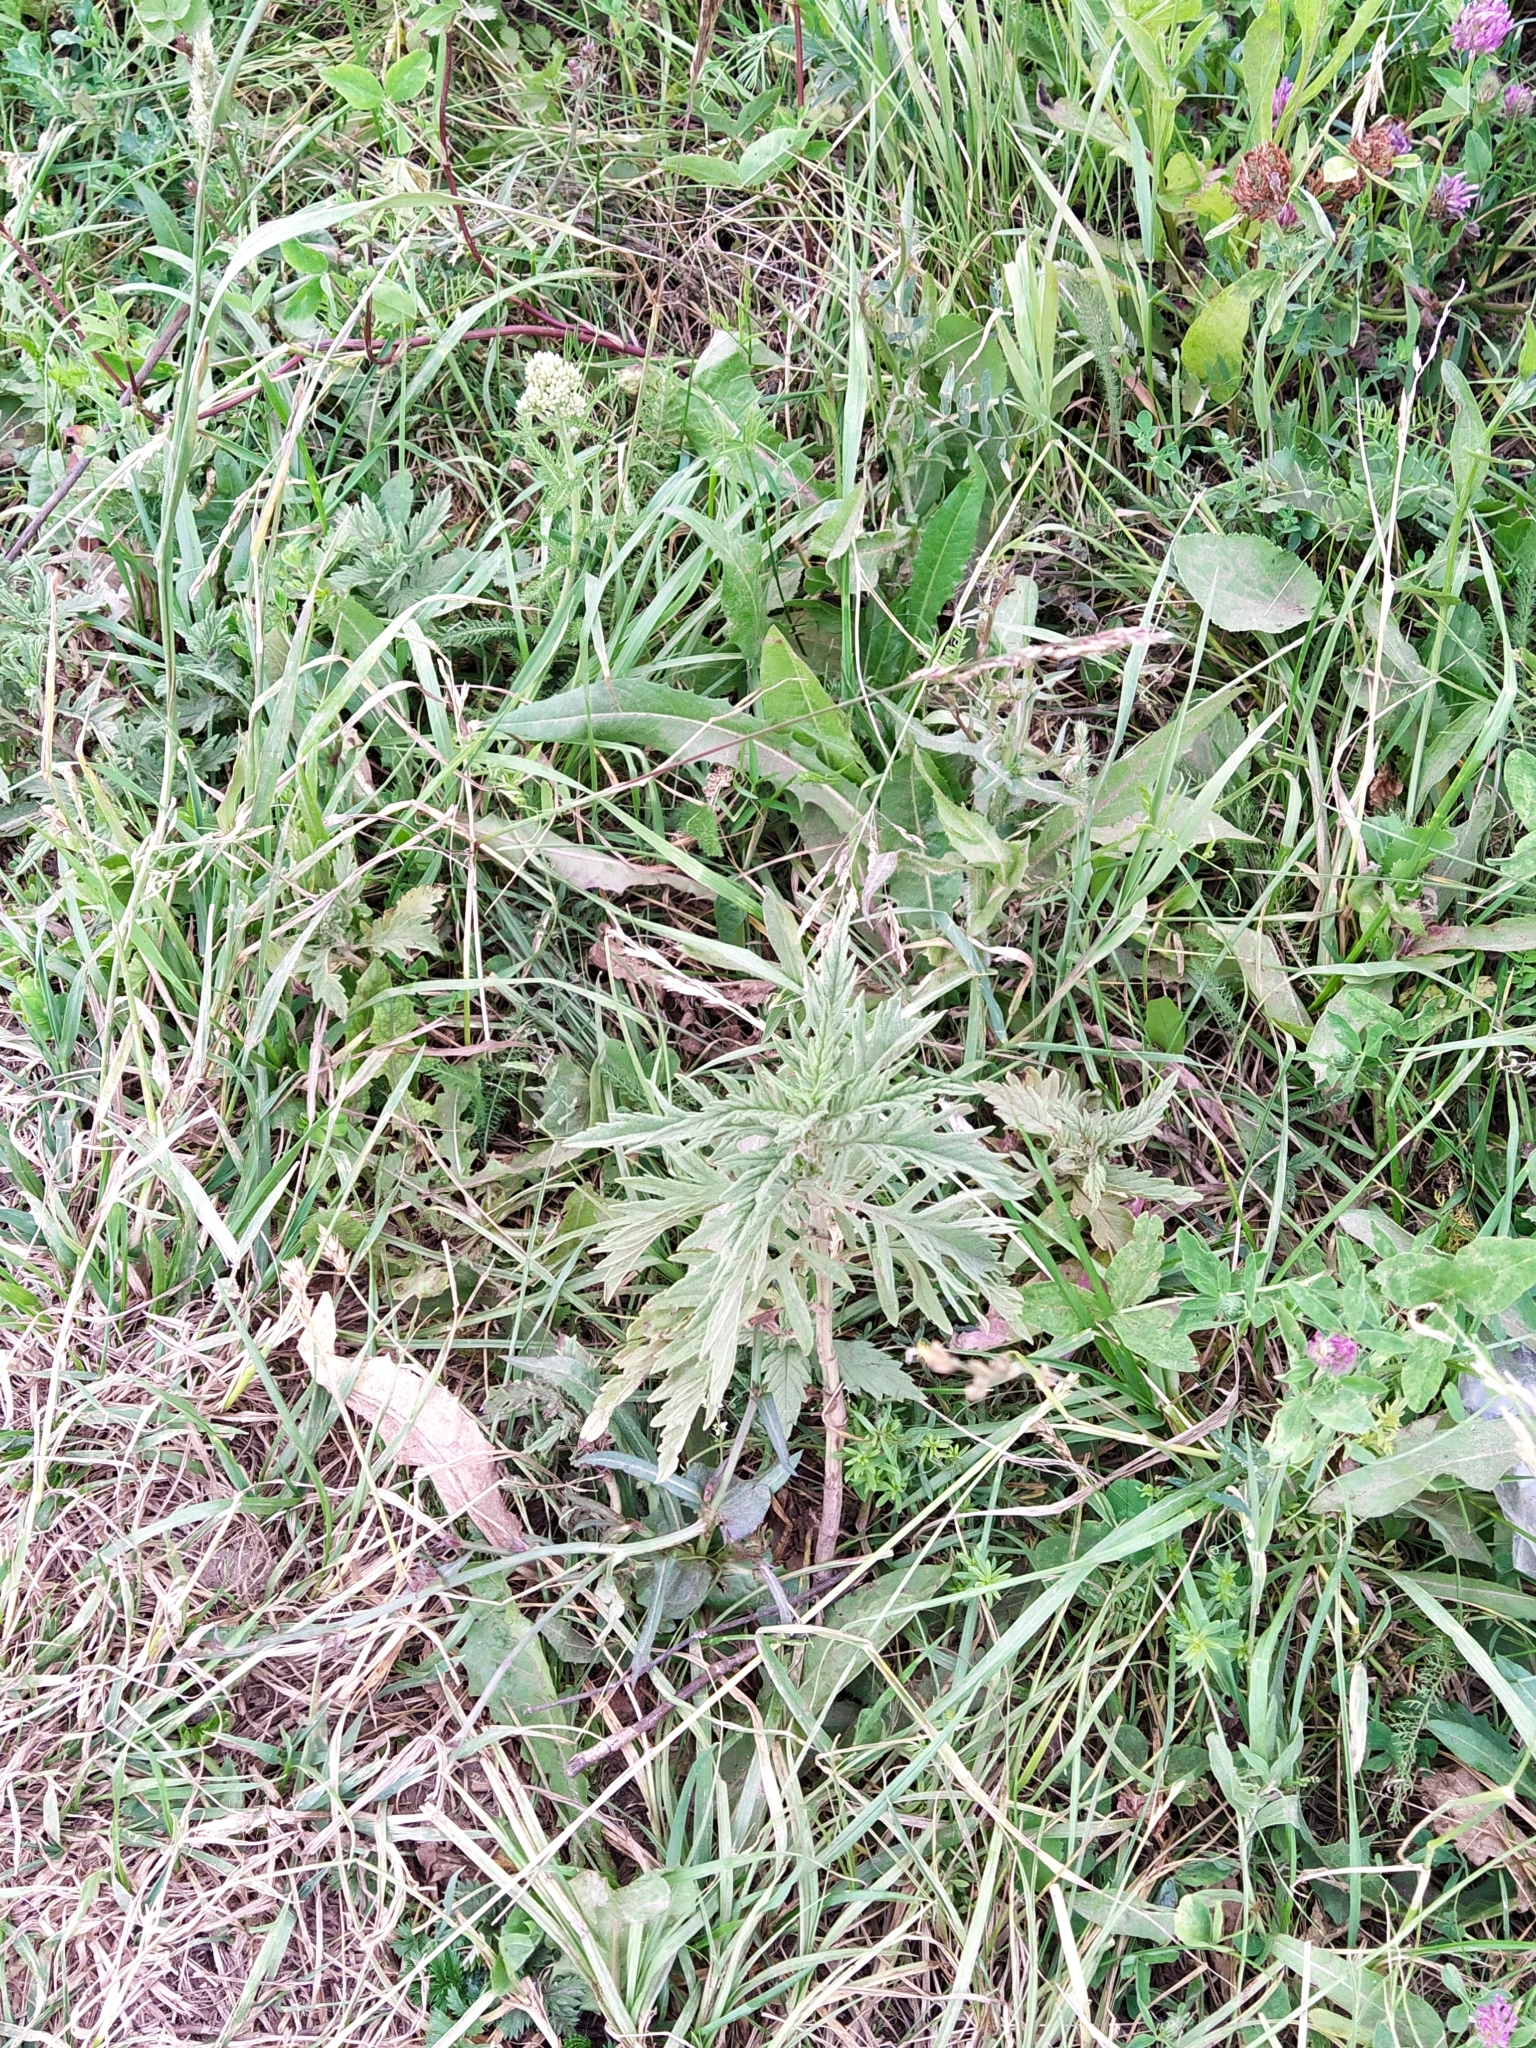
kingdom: Plantae
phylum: Tracheophyta
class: Magnoliopsida
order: Lamiales
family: Lamiaceae
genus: Lycopus
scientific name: Lycopus exaltatus
